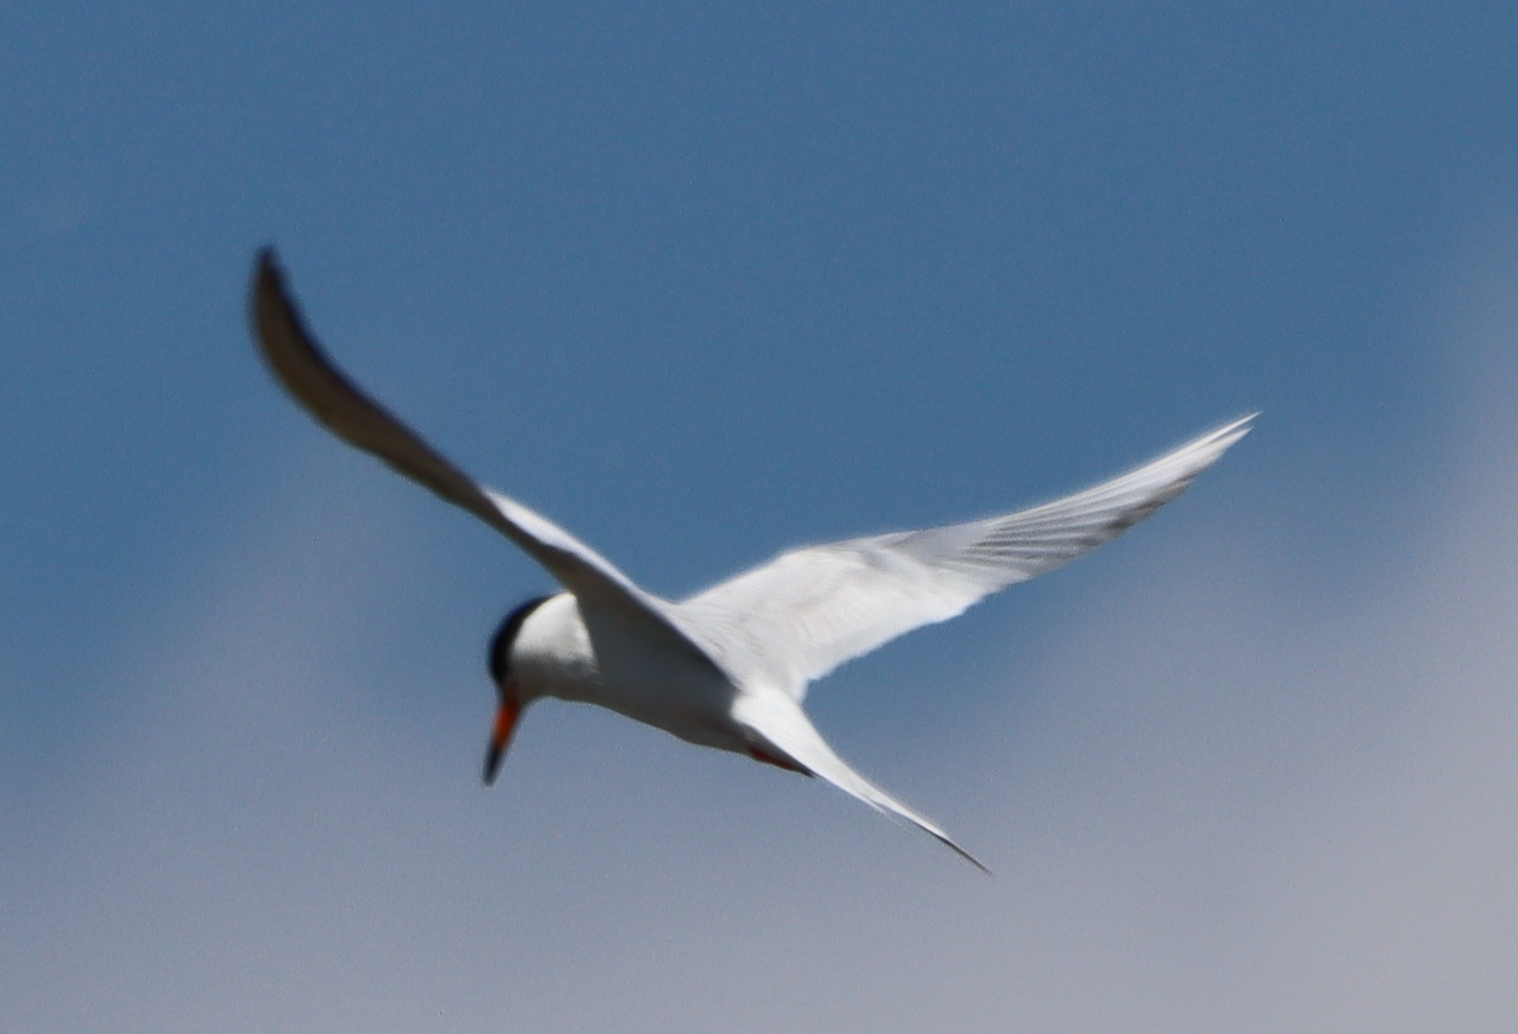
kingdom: Animalia
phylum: Chordata
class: Aves
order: Charadriiformes
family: Laridae
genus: Sterna
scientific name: Sterna hirundo
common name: Common tern
